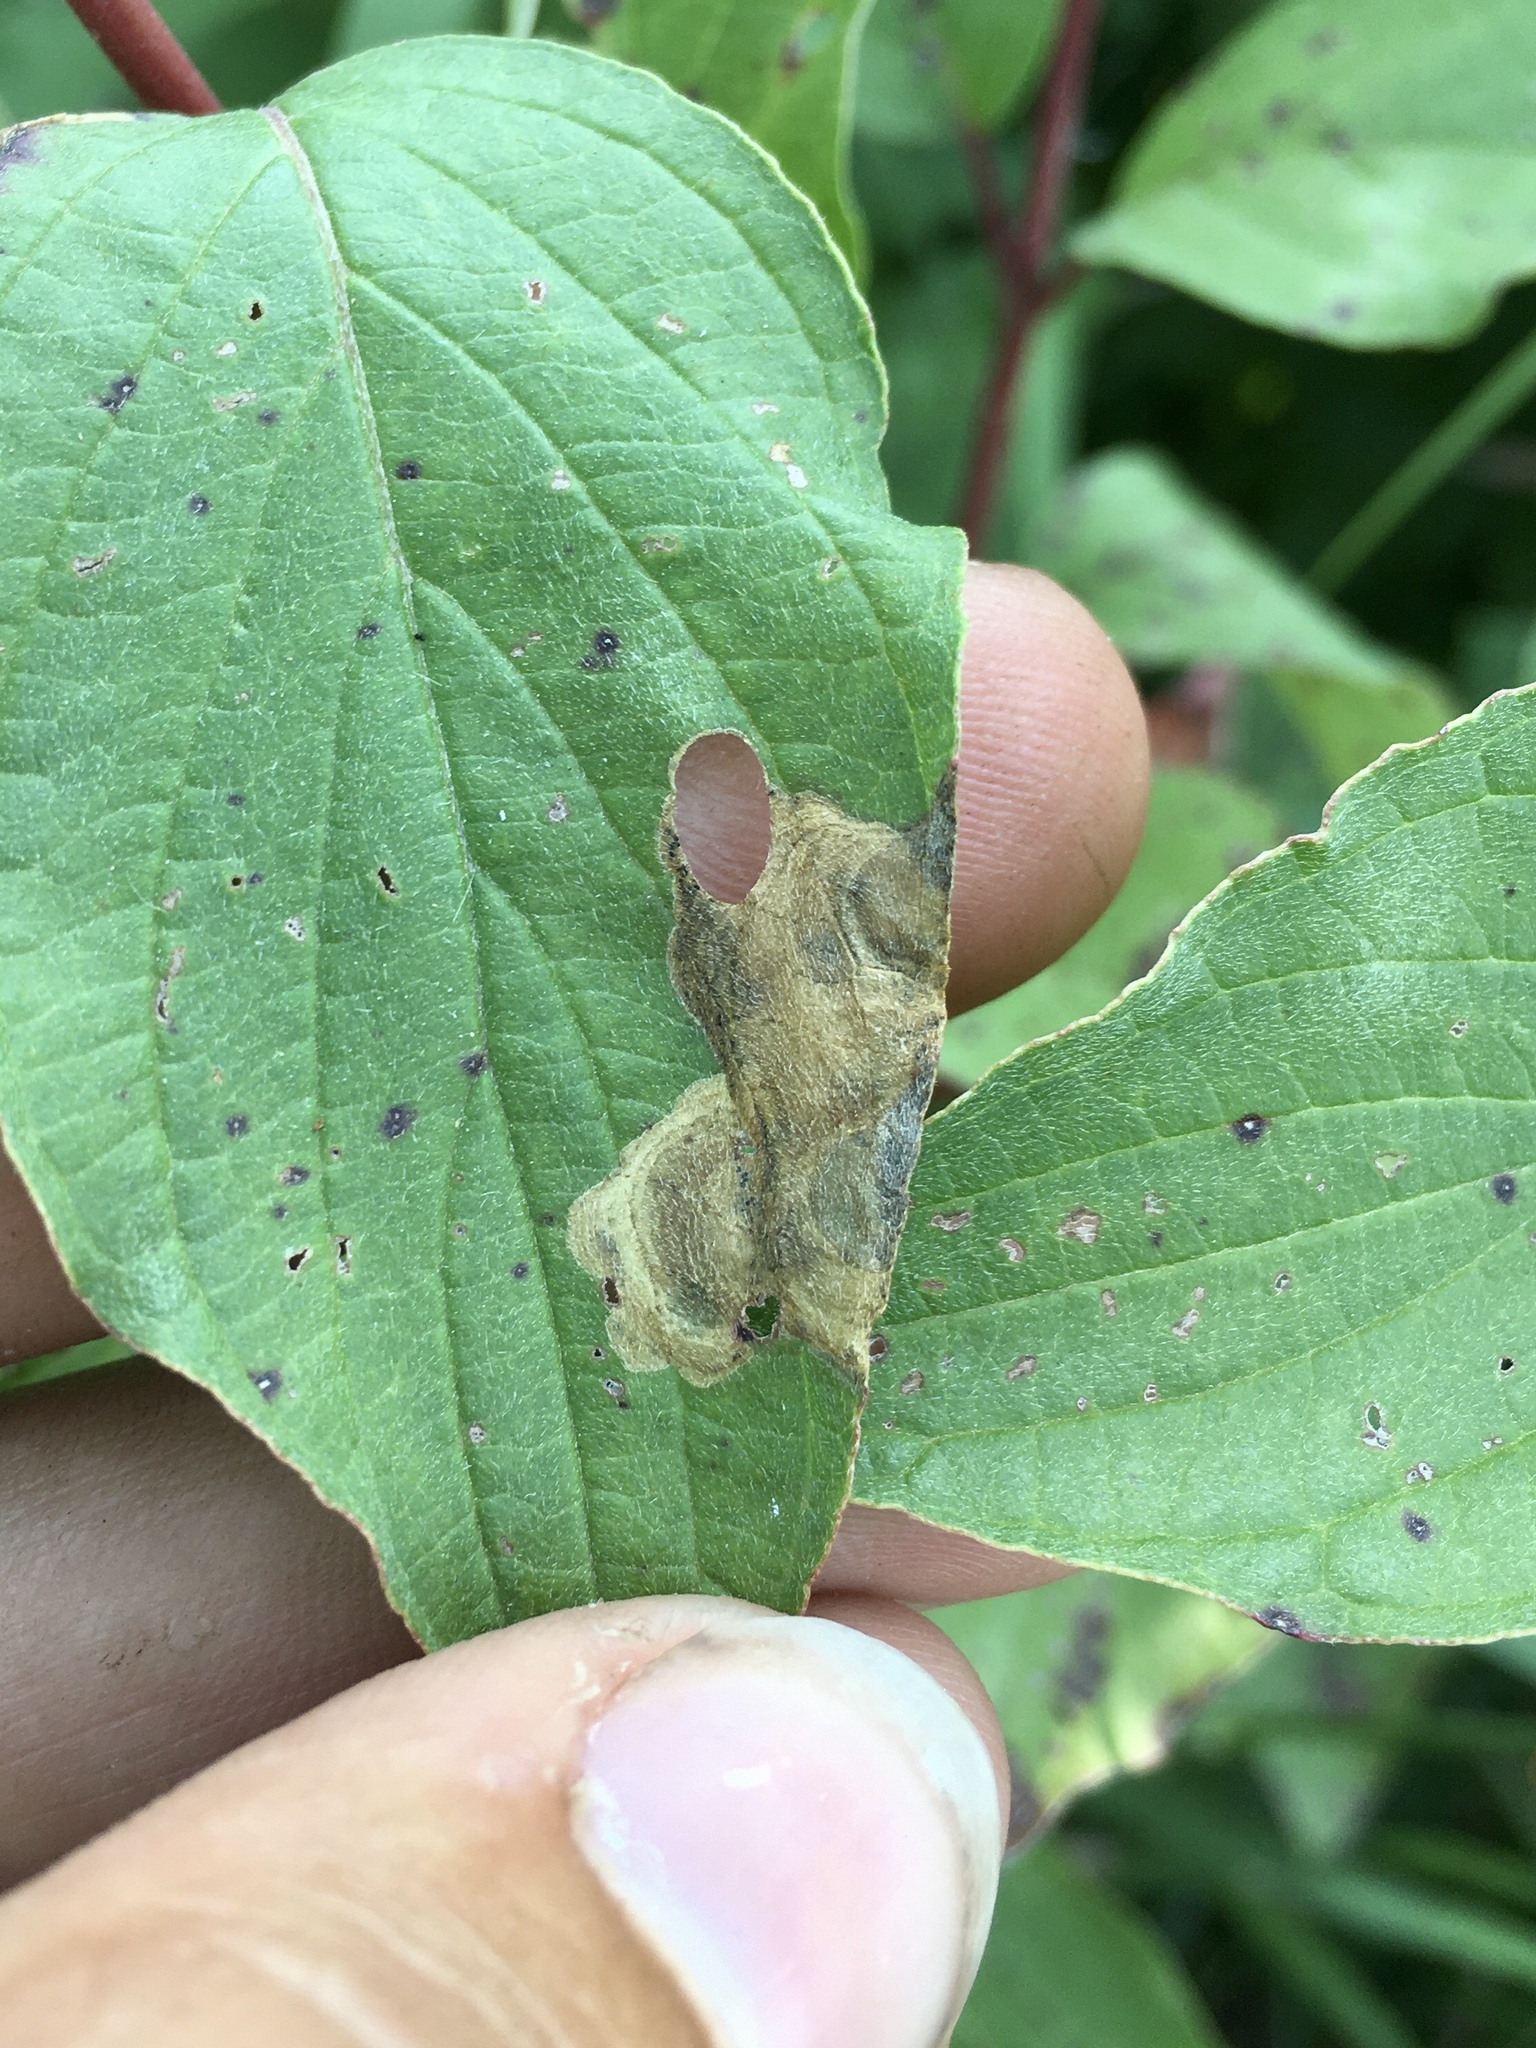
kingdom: Animalia
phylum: Arthropoda
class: Insecta
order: Lepidoptera
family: Heliozelidae
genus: Antispila
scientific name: Antispila freemani
